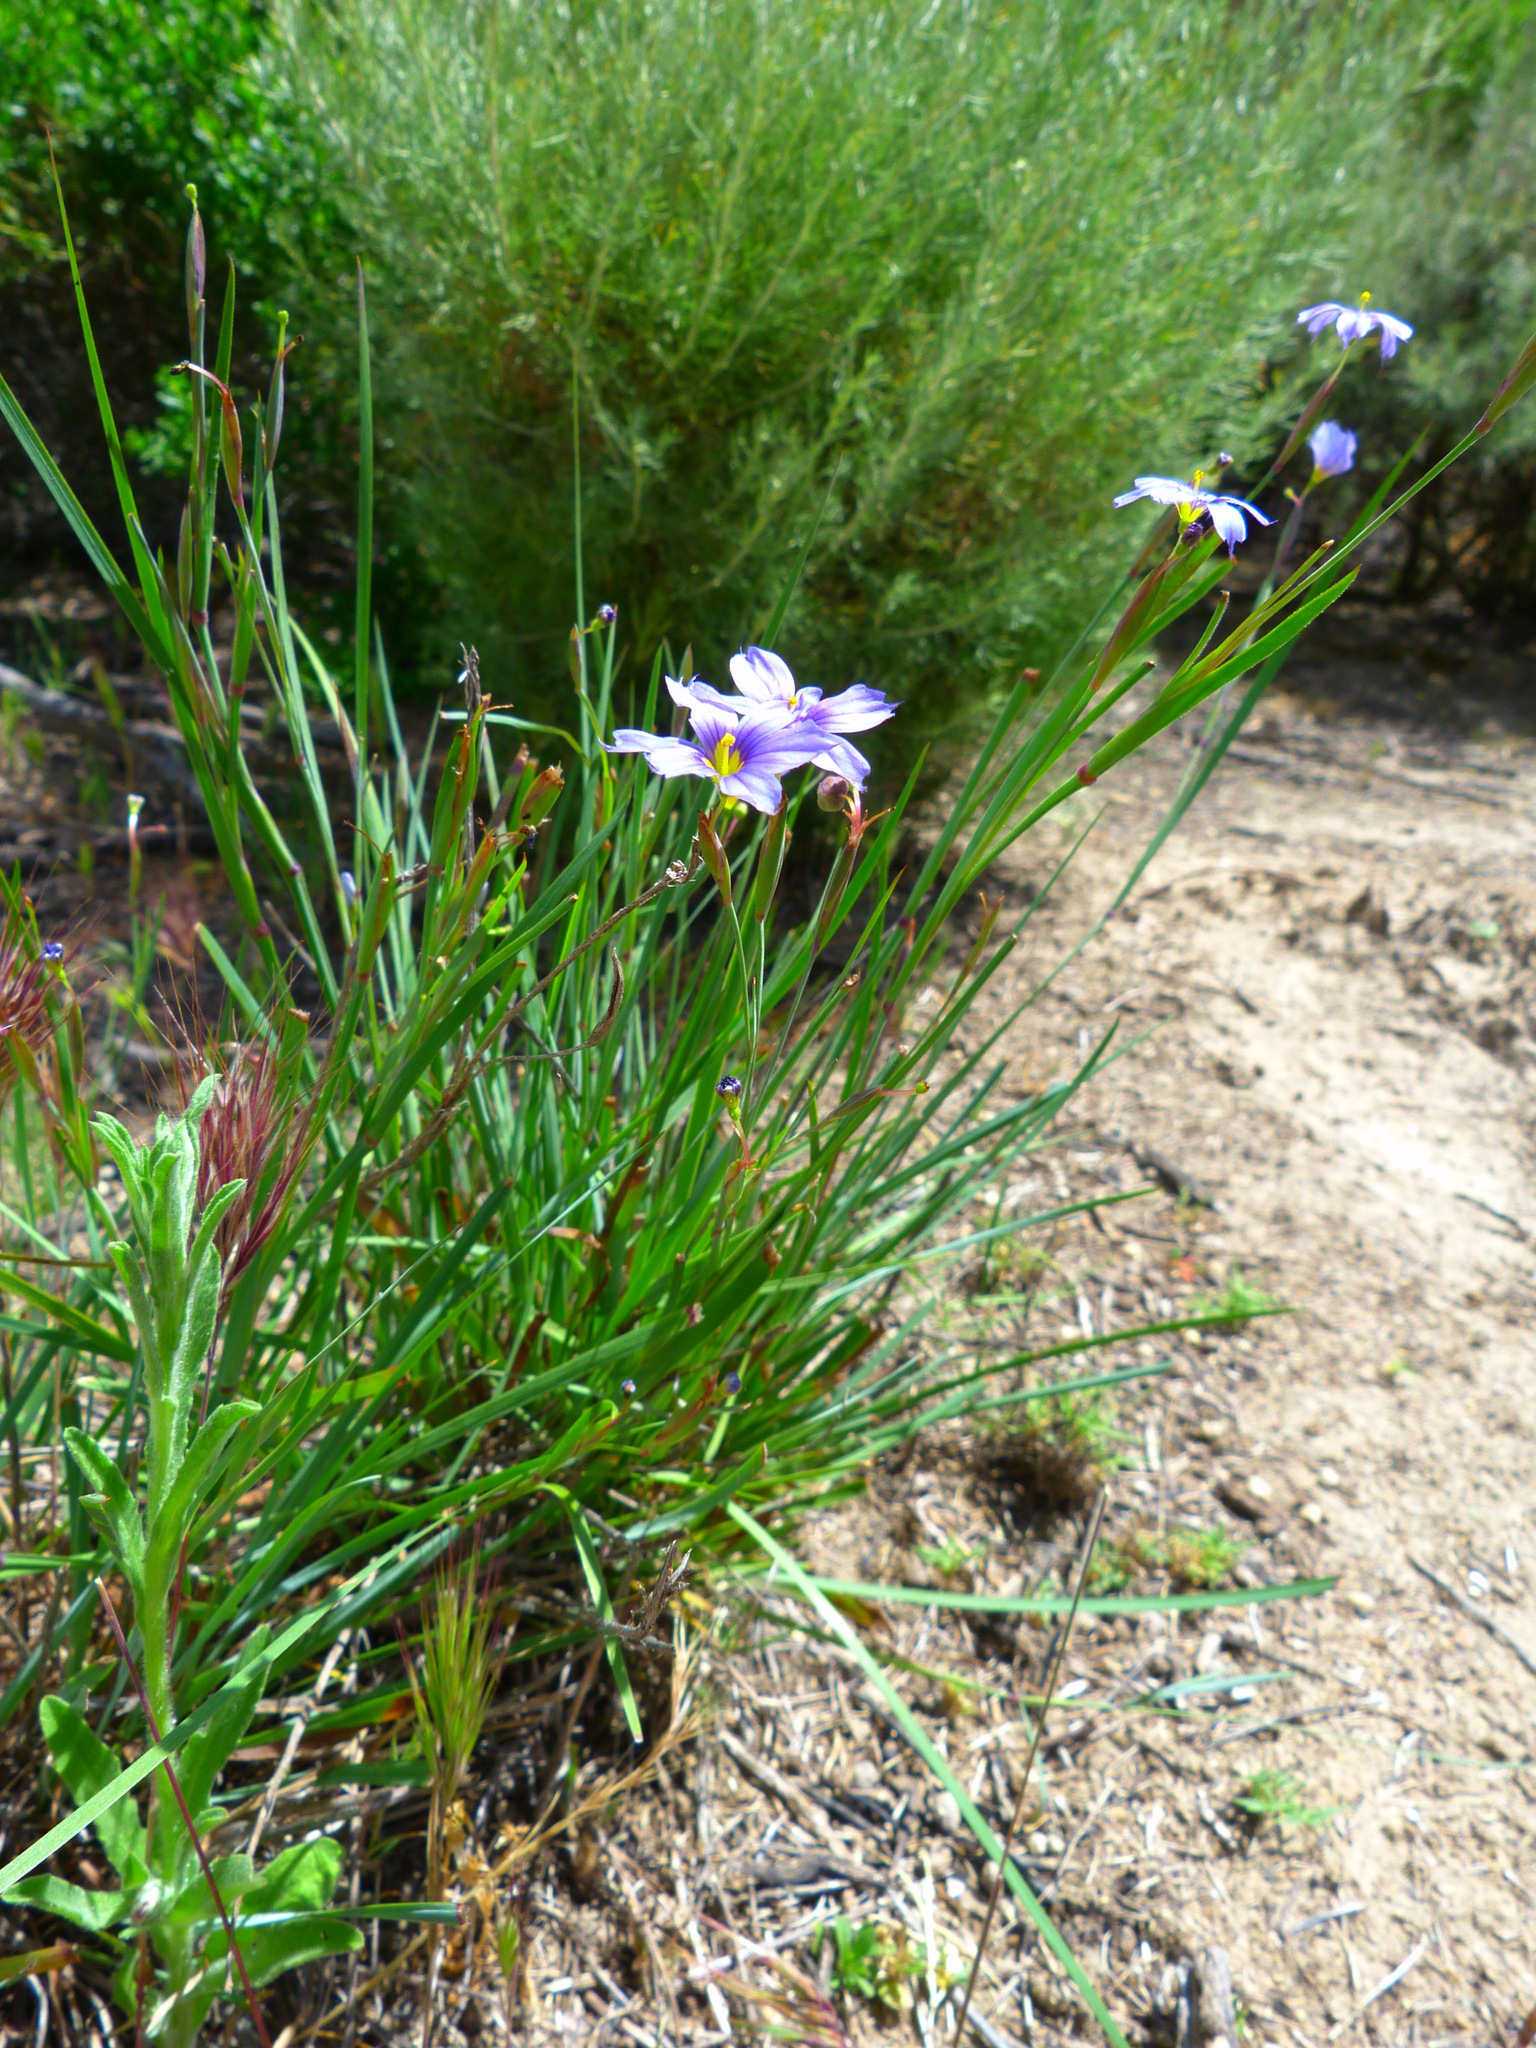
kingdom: Plantae
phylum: Tracheophyta
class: Liliopsida
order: Asparagales
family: Iridaceae
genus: Sisyrinchium
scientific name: Sisyrinchium bellum
